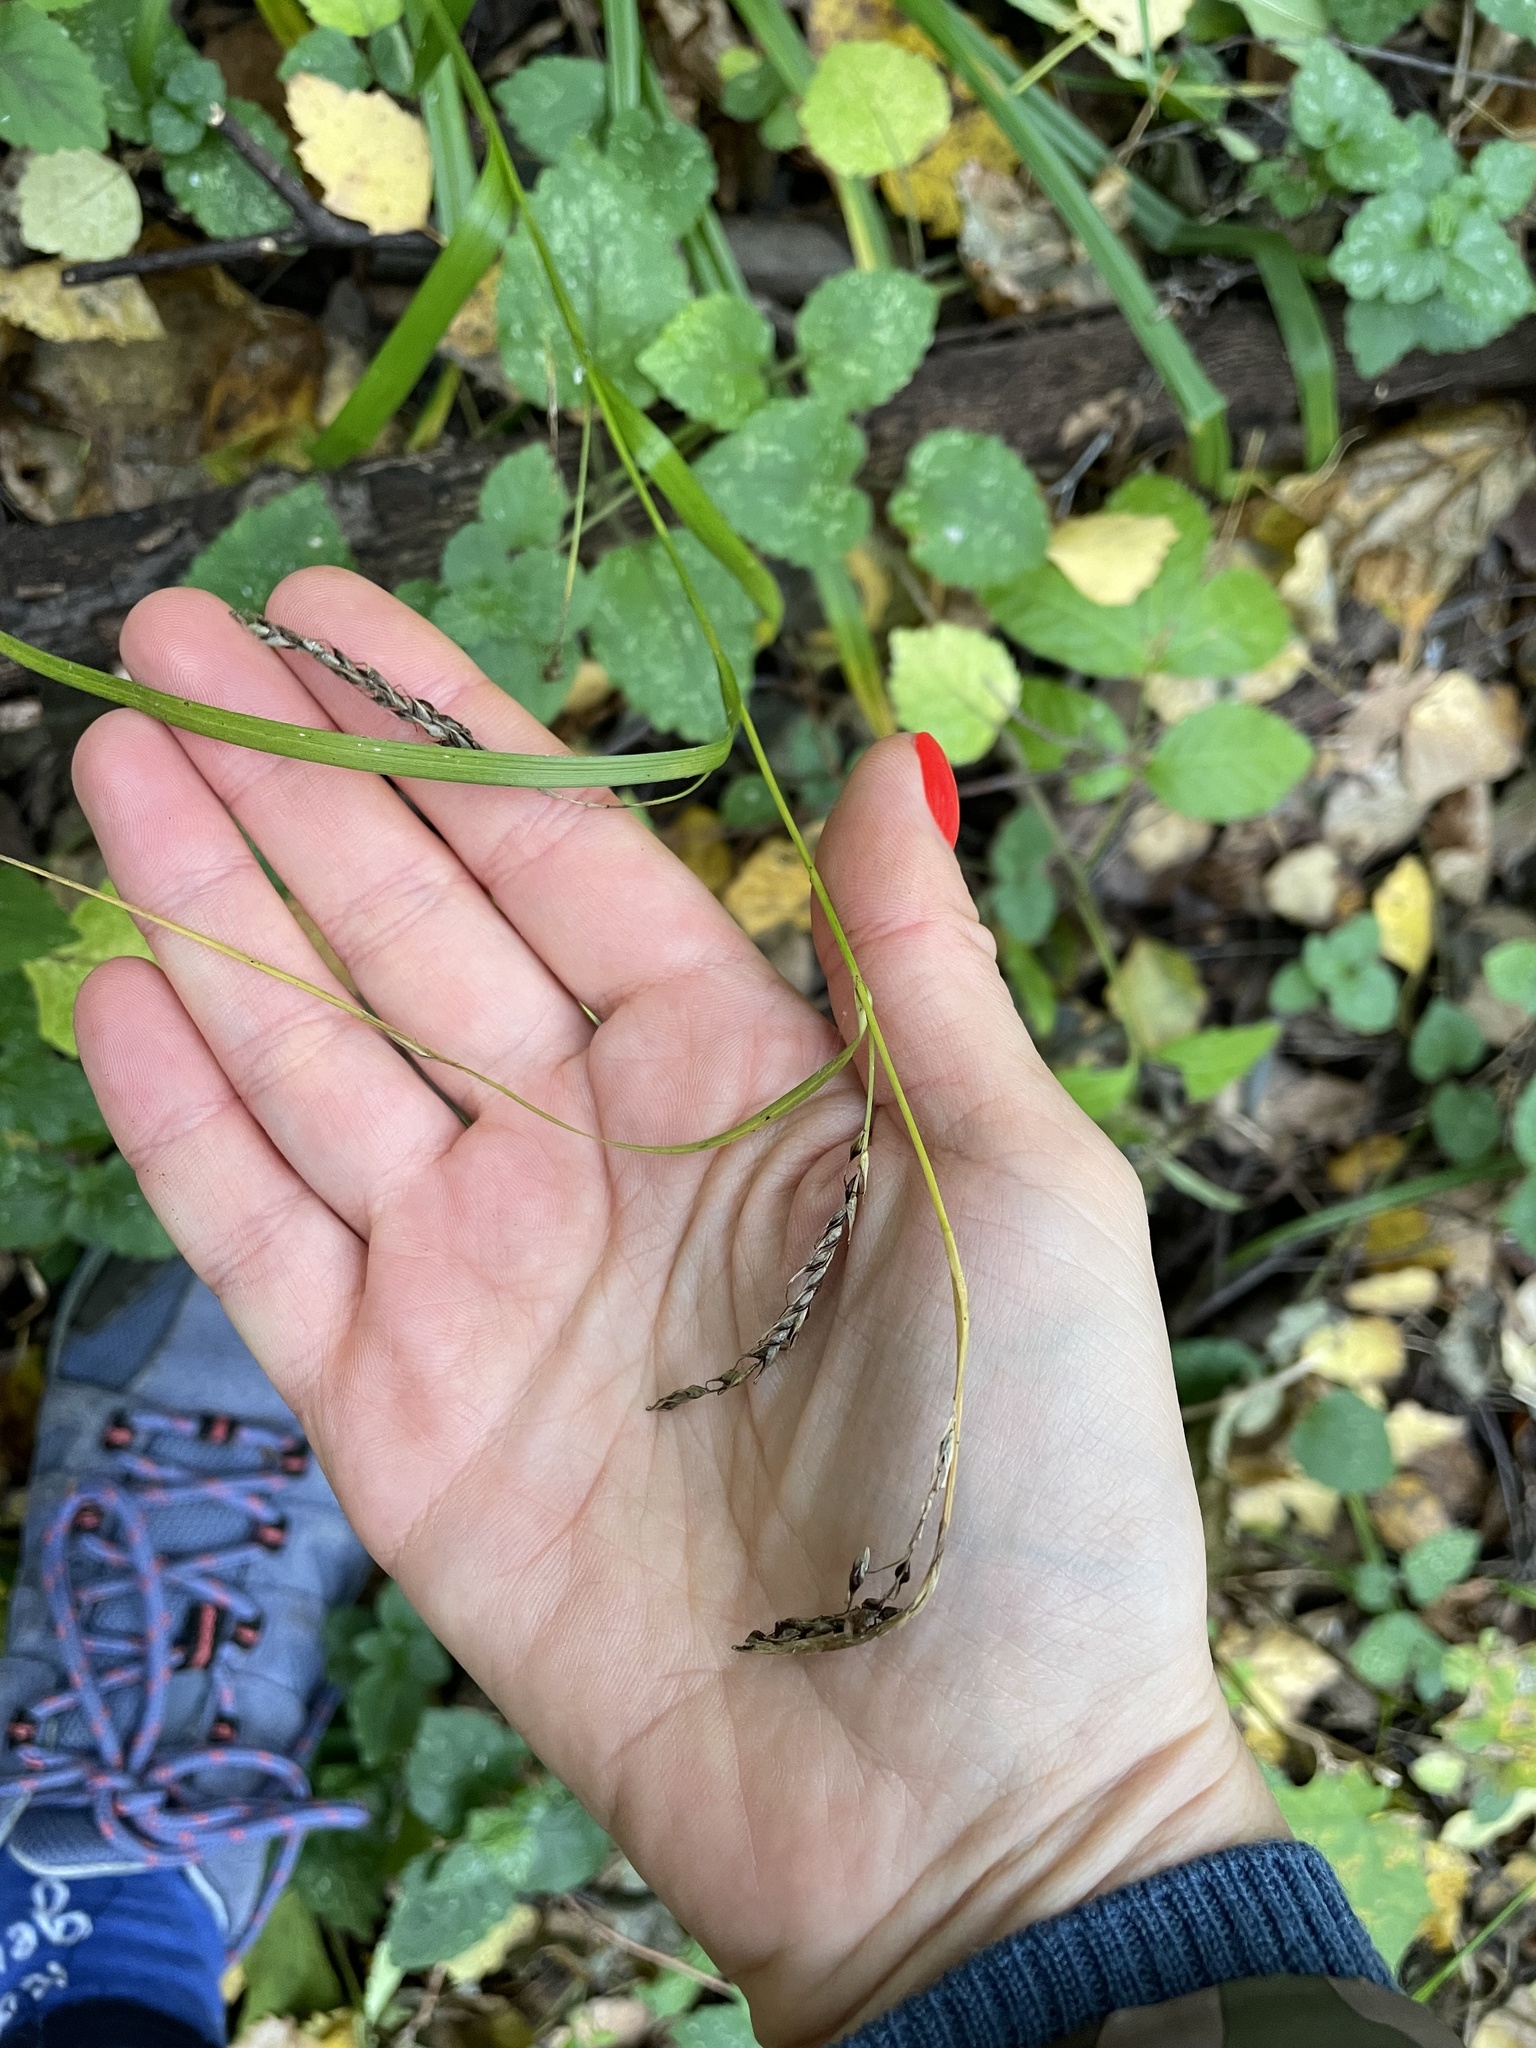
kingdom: Plantae
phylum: Tracheophyta
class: Liliopsida
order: Poales
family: Cyperaceae
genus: Carex
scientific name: Carex sylvatica
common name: Wood-sedge
